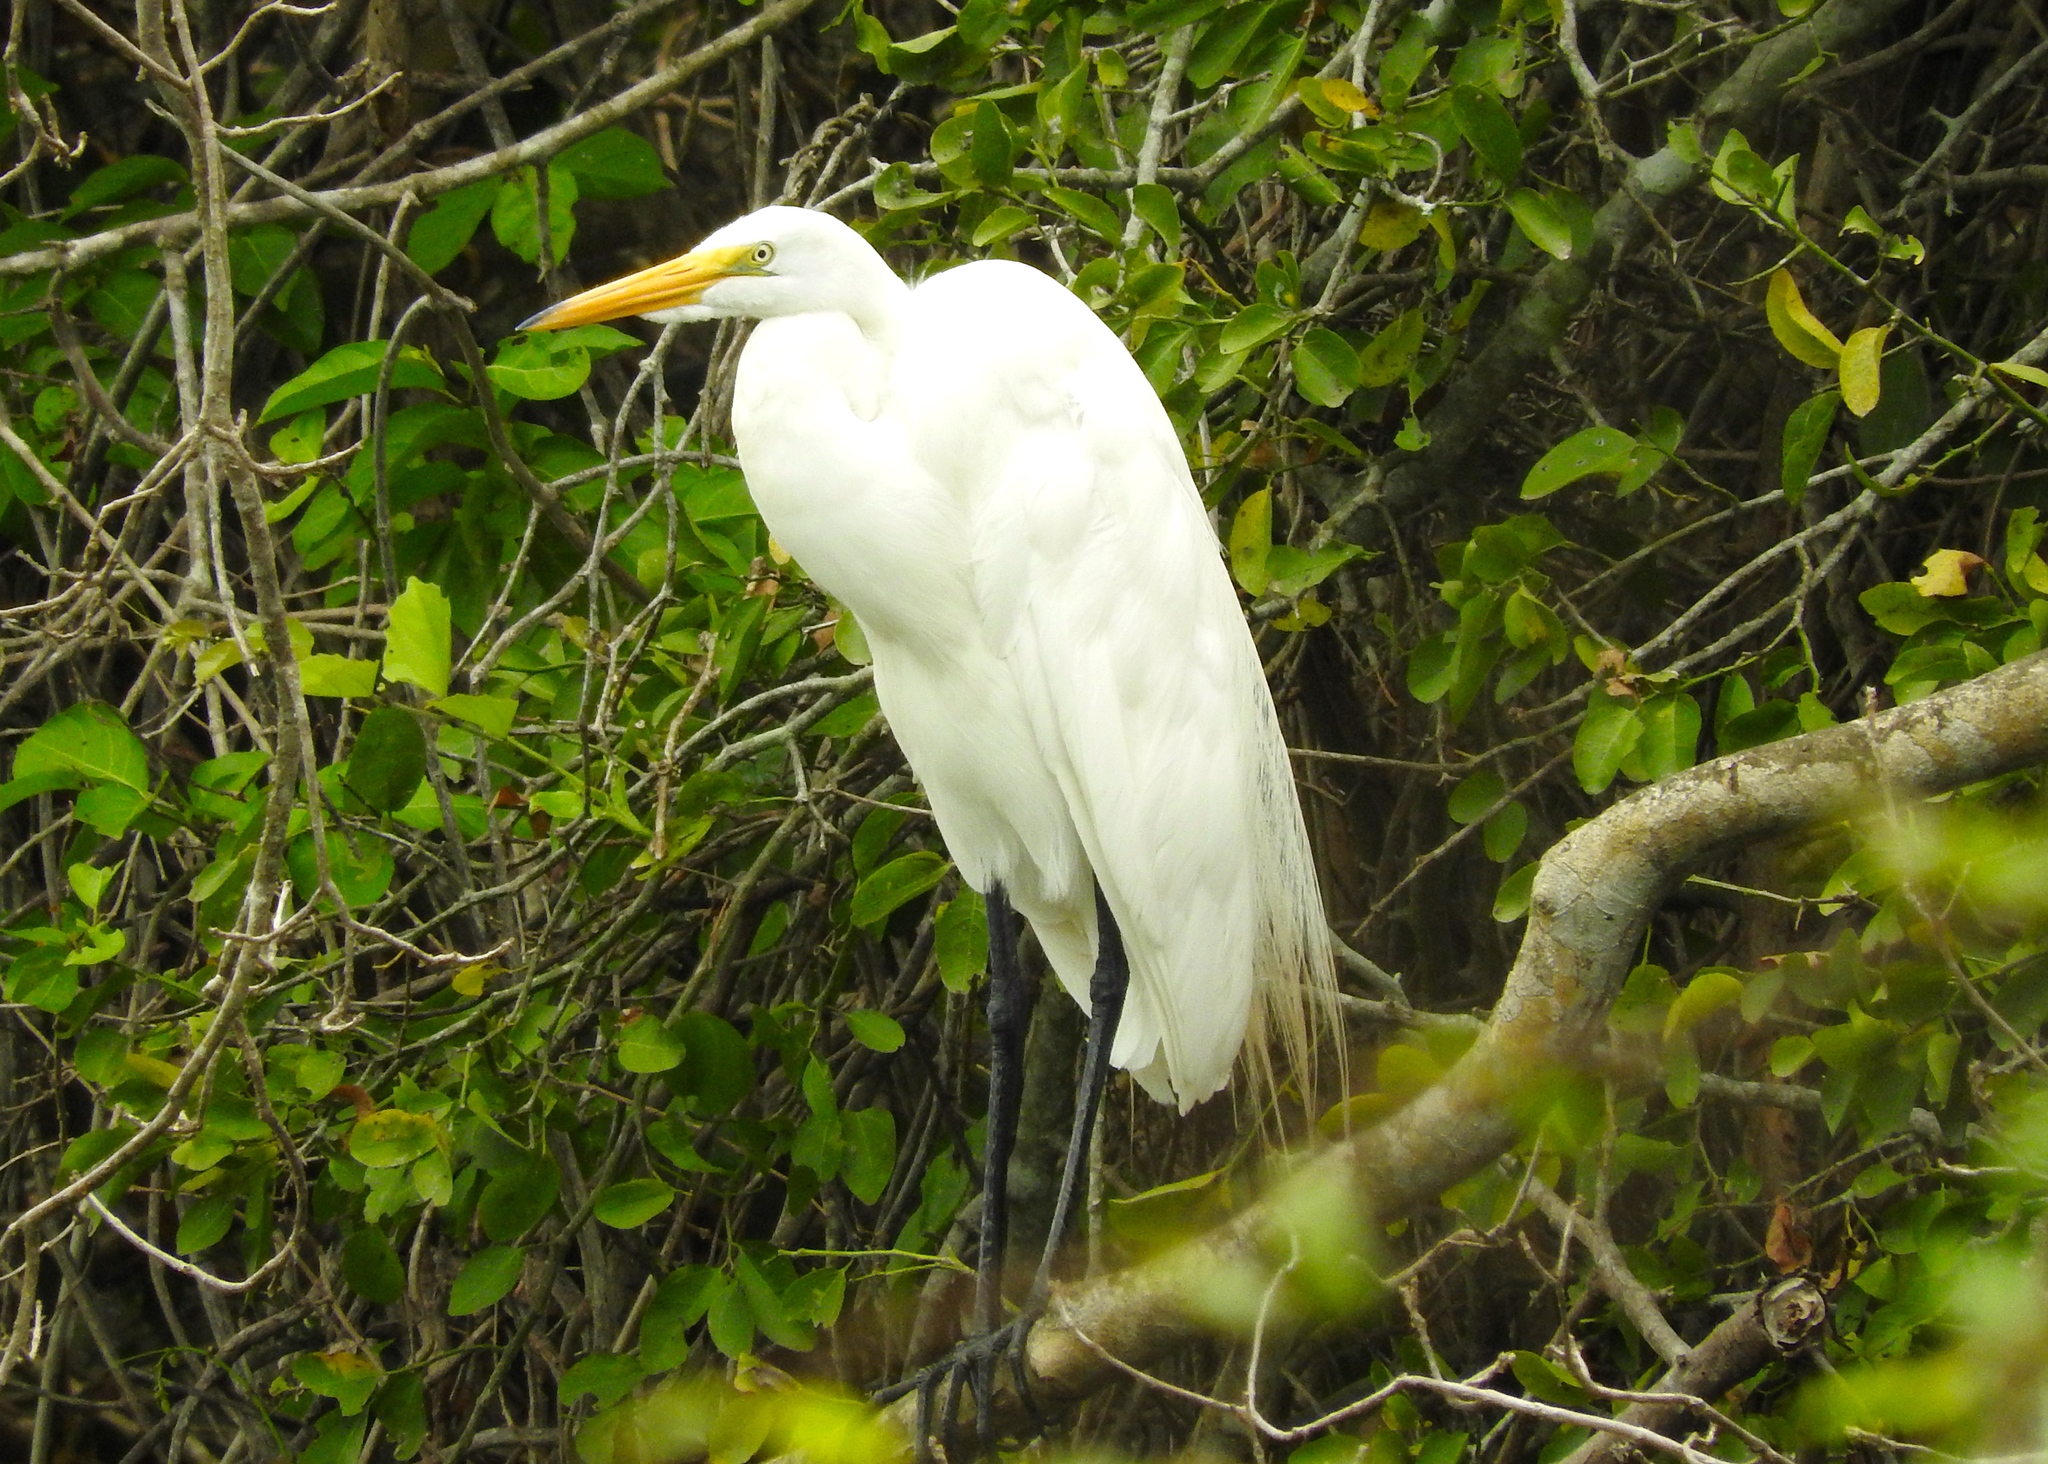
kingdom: Animalia
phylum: Chordata
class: Aves
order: Pelecaniformes
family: Ardeidae
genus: Ardea
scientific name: Ardea alba
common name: Great egret
